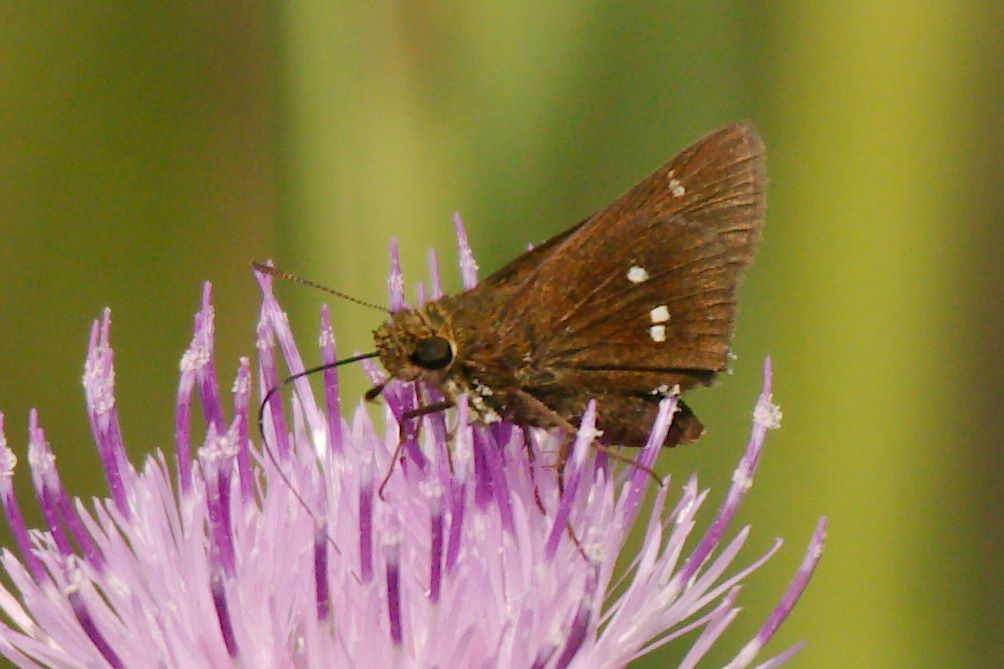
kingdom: Animalia
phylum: Arthropoda
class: Insecta
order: Lepidoptera
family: Hesperiidae
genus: Oligoria
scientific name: Oligoria maculata
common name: Twin-spot skipper
